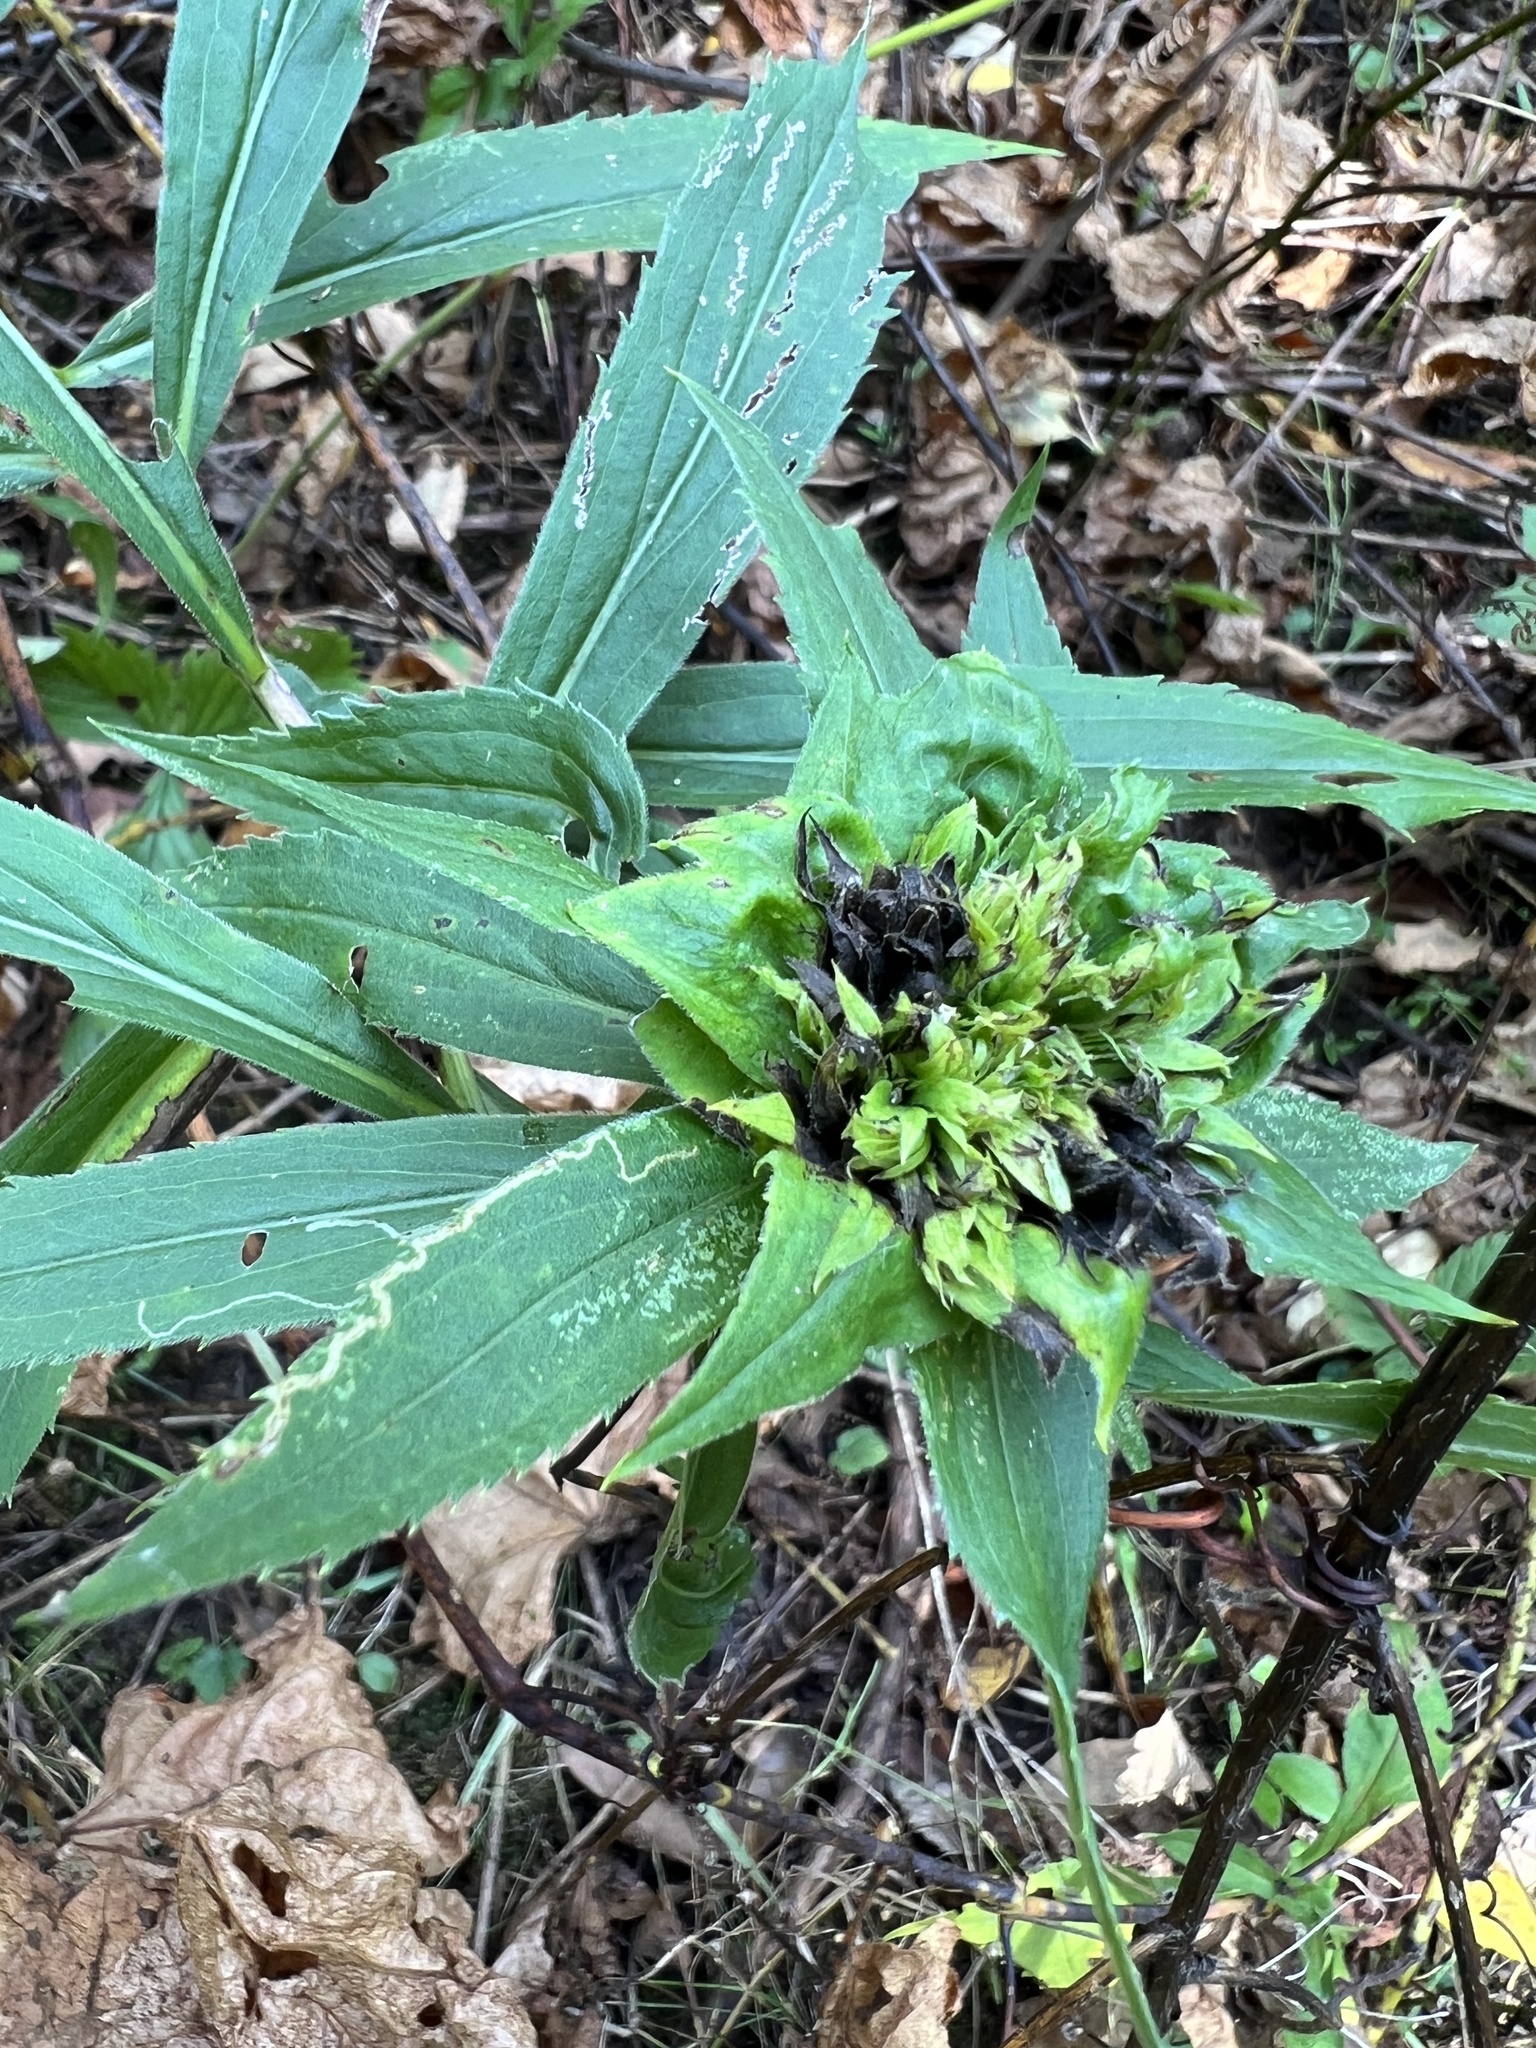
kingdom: Animalia
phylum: Arthropoda
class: Insecta
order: Diptera
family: Cecidomyiidae
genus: Rhopalomyia
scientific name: Rhopalomyia capitata
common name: Giant goldenrod bunch gall midge
